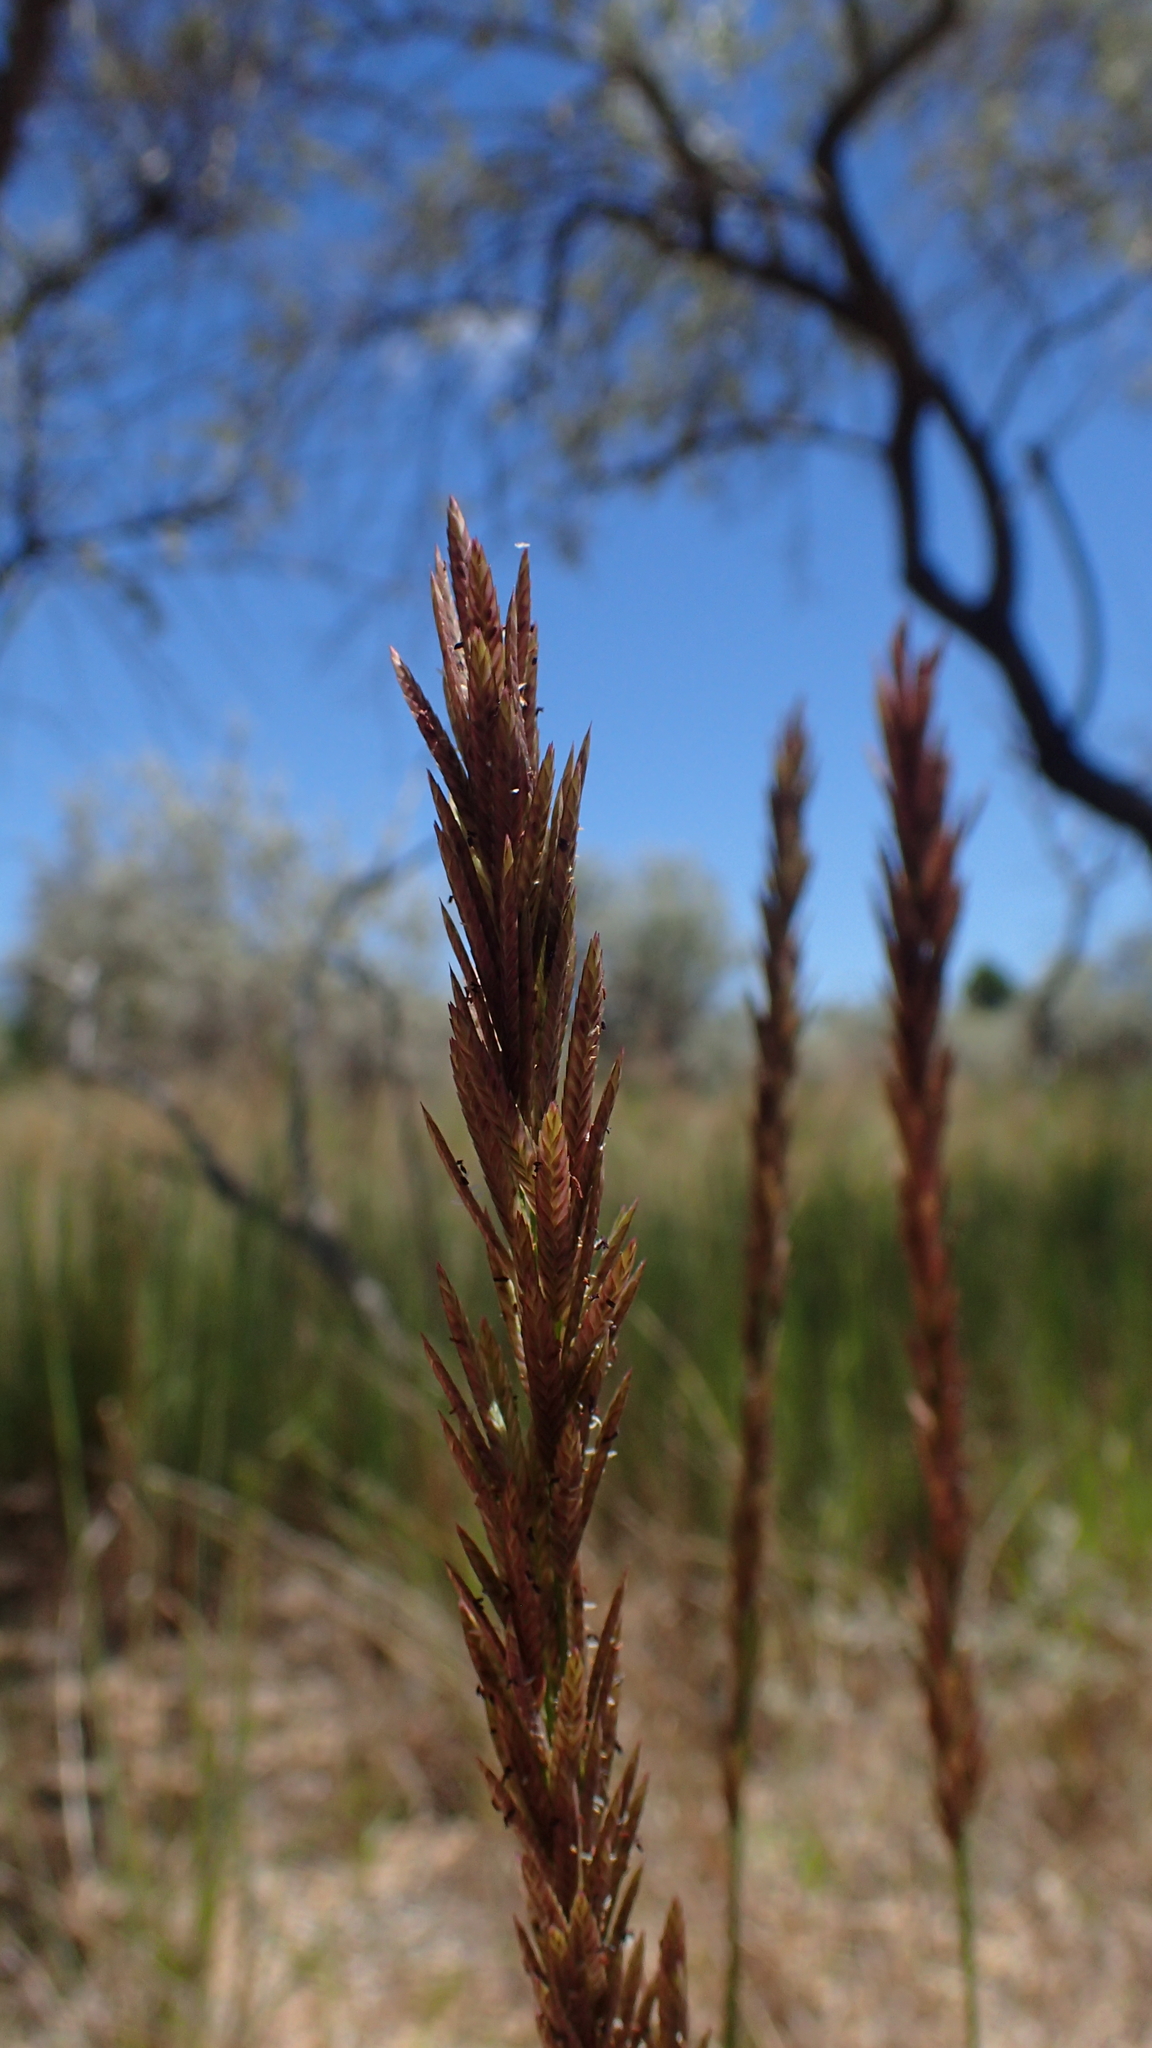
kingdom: Plantae
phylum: Tracheophyta
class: Liliopsida
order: Poales
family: Poaceae
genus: Eragrostis
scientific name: Eragrostis chapelieri
